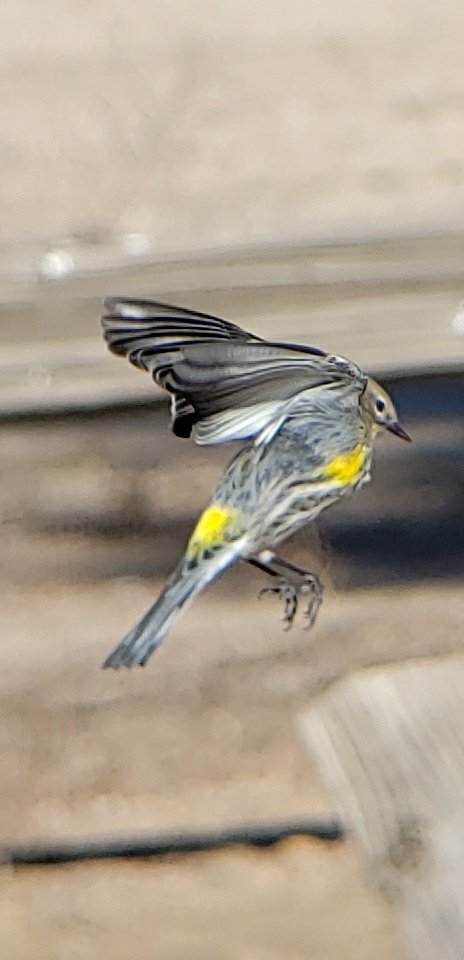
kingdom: Animalia
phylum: Chordata
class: Aves
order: Passeriformes
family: Parulidae
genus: Setophaga
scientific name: Setophaga coronata
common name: Myrtle warbler
